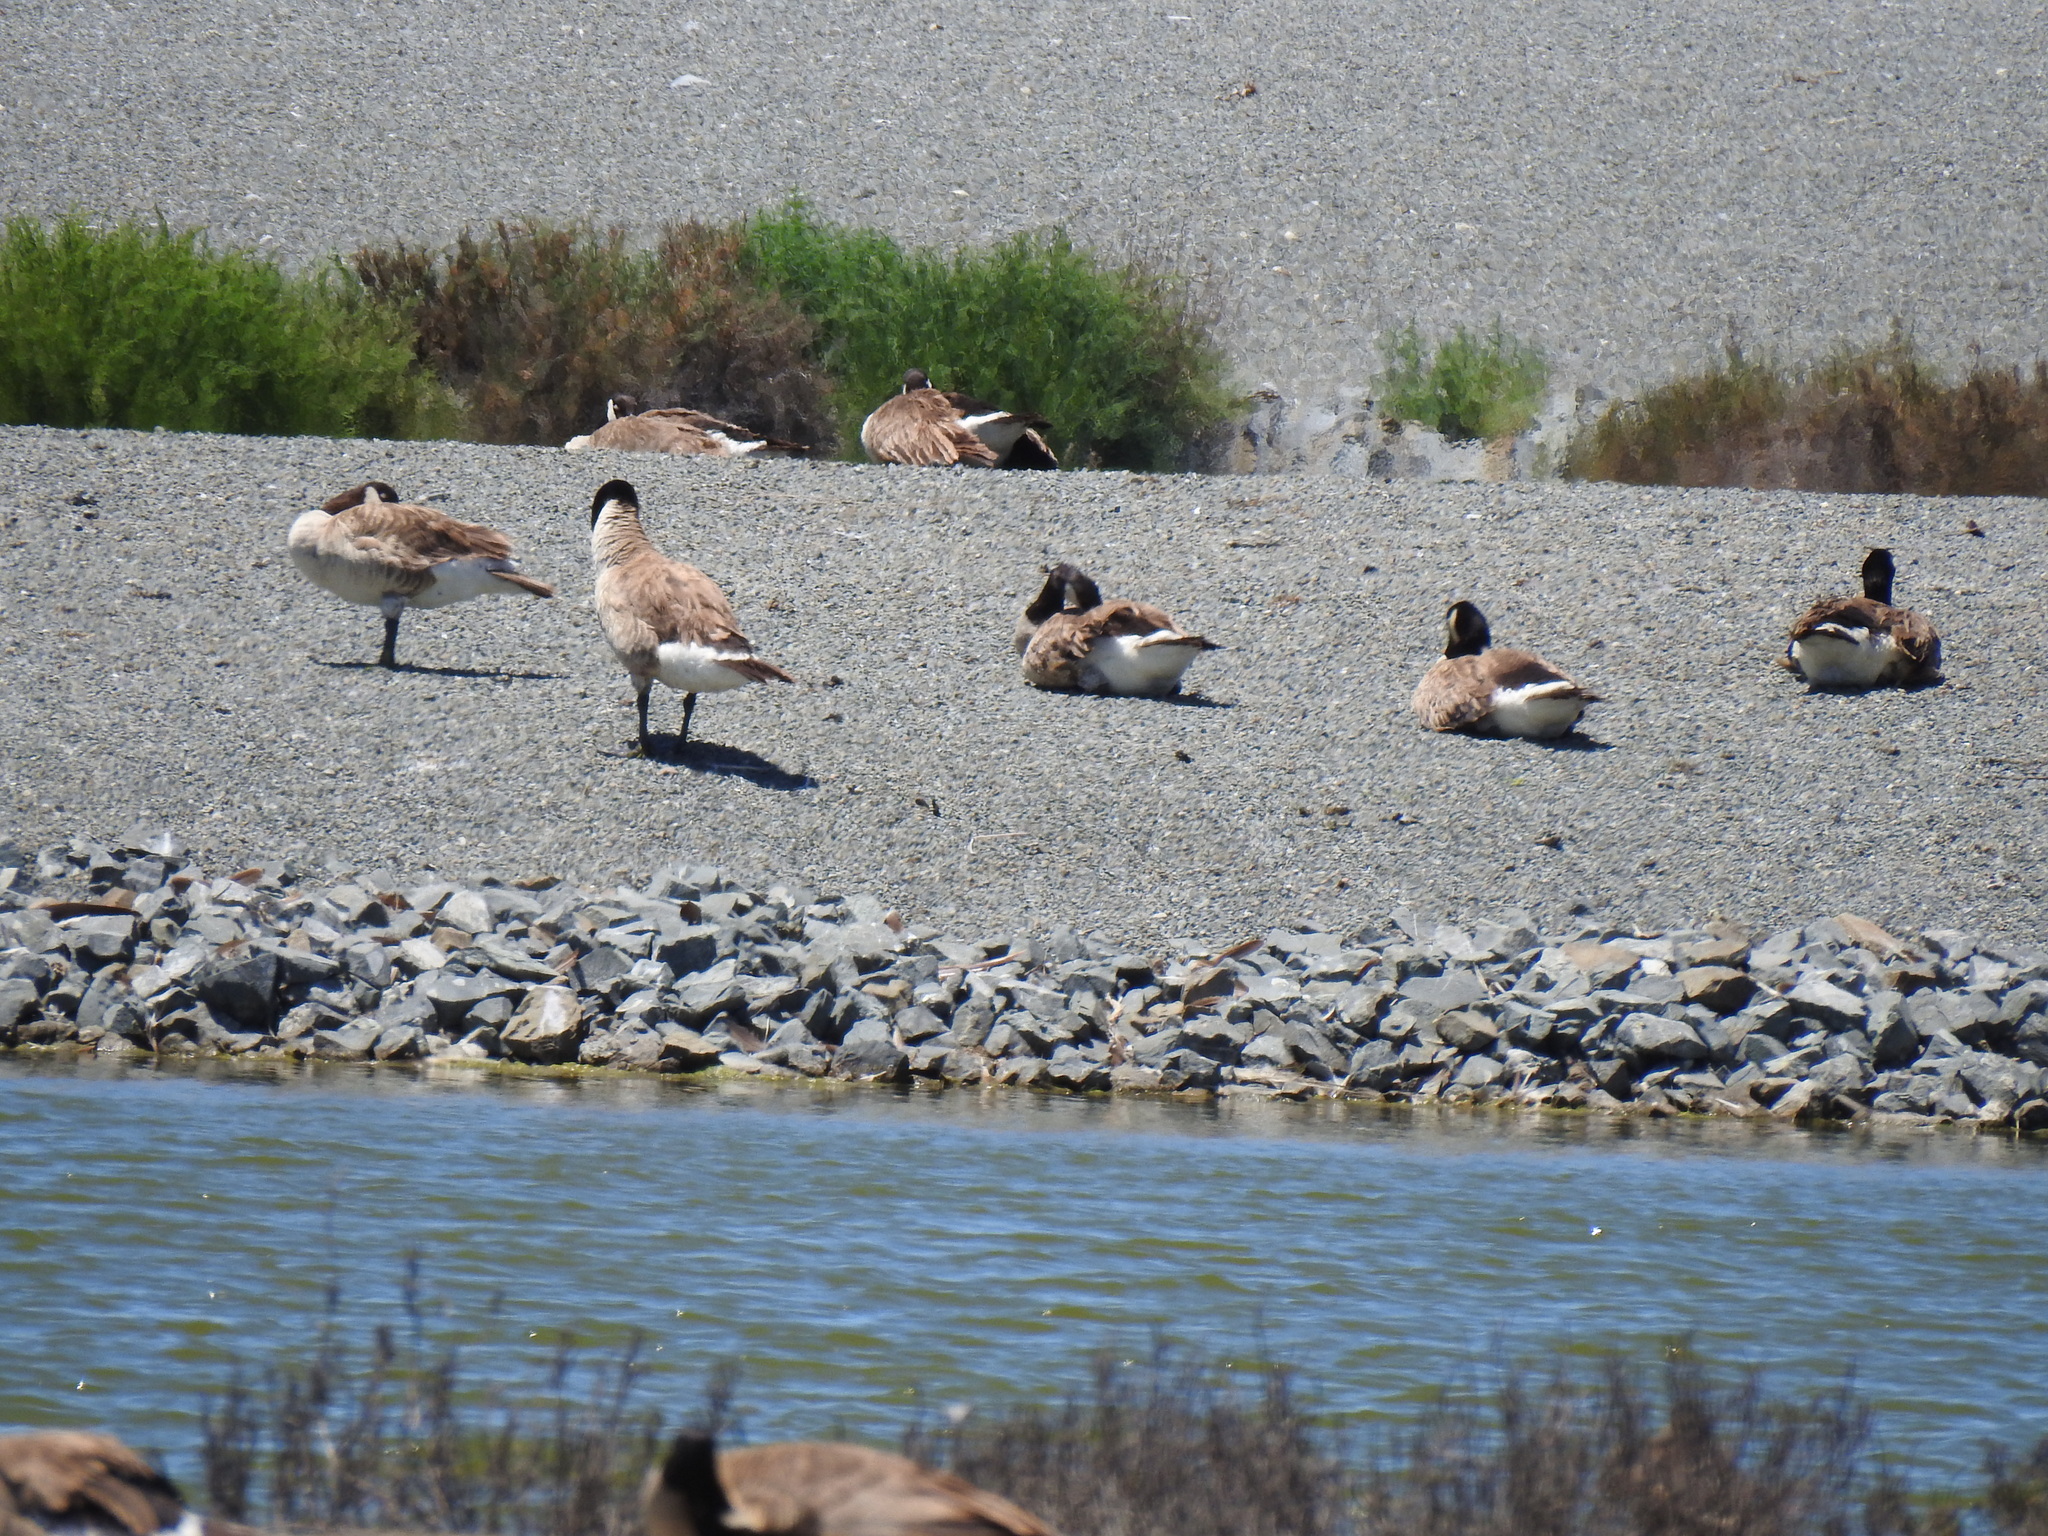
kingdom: Animalia
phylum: Chordata
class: Aves
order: Anseriformes
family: Anatidae
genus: Branta
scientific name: Branta canadensis
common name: Canada goose
